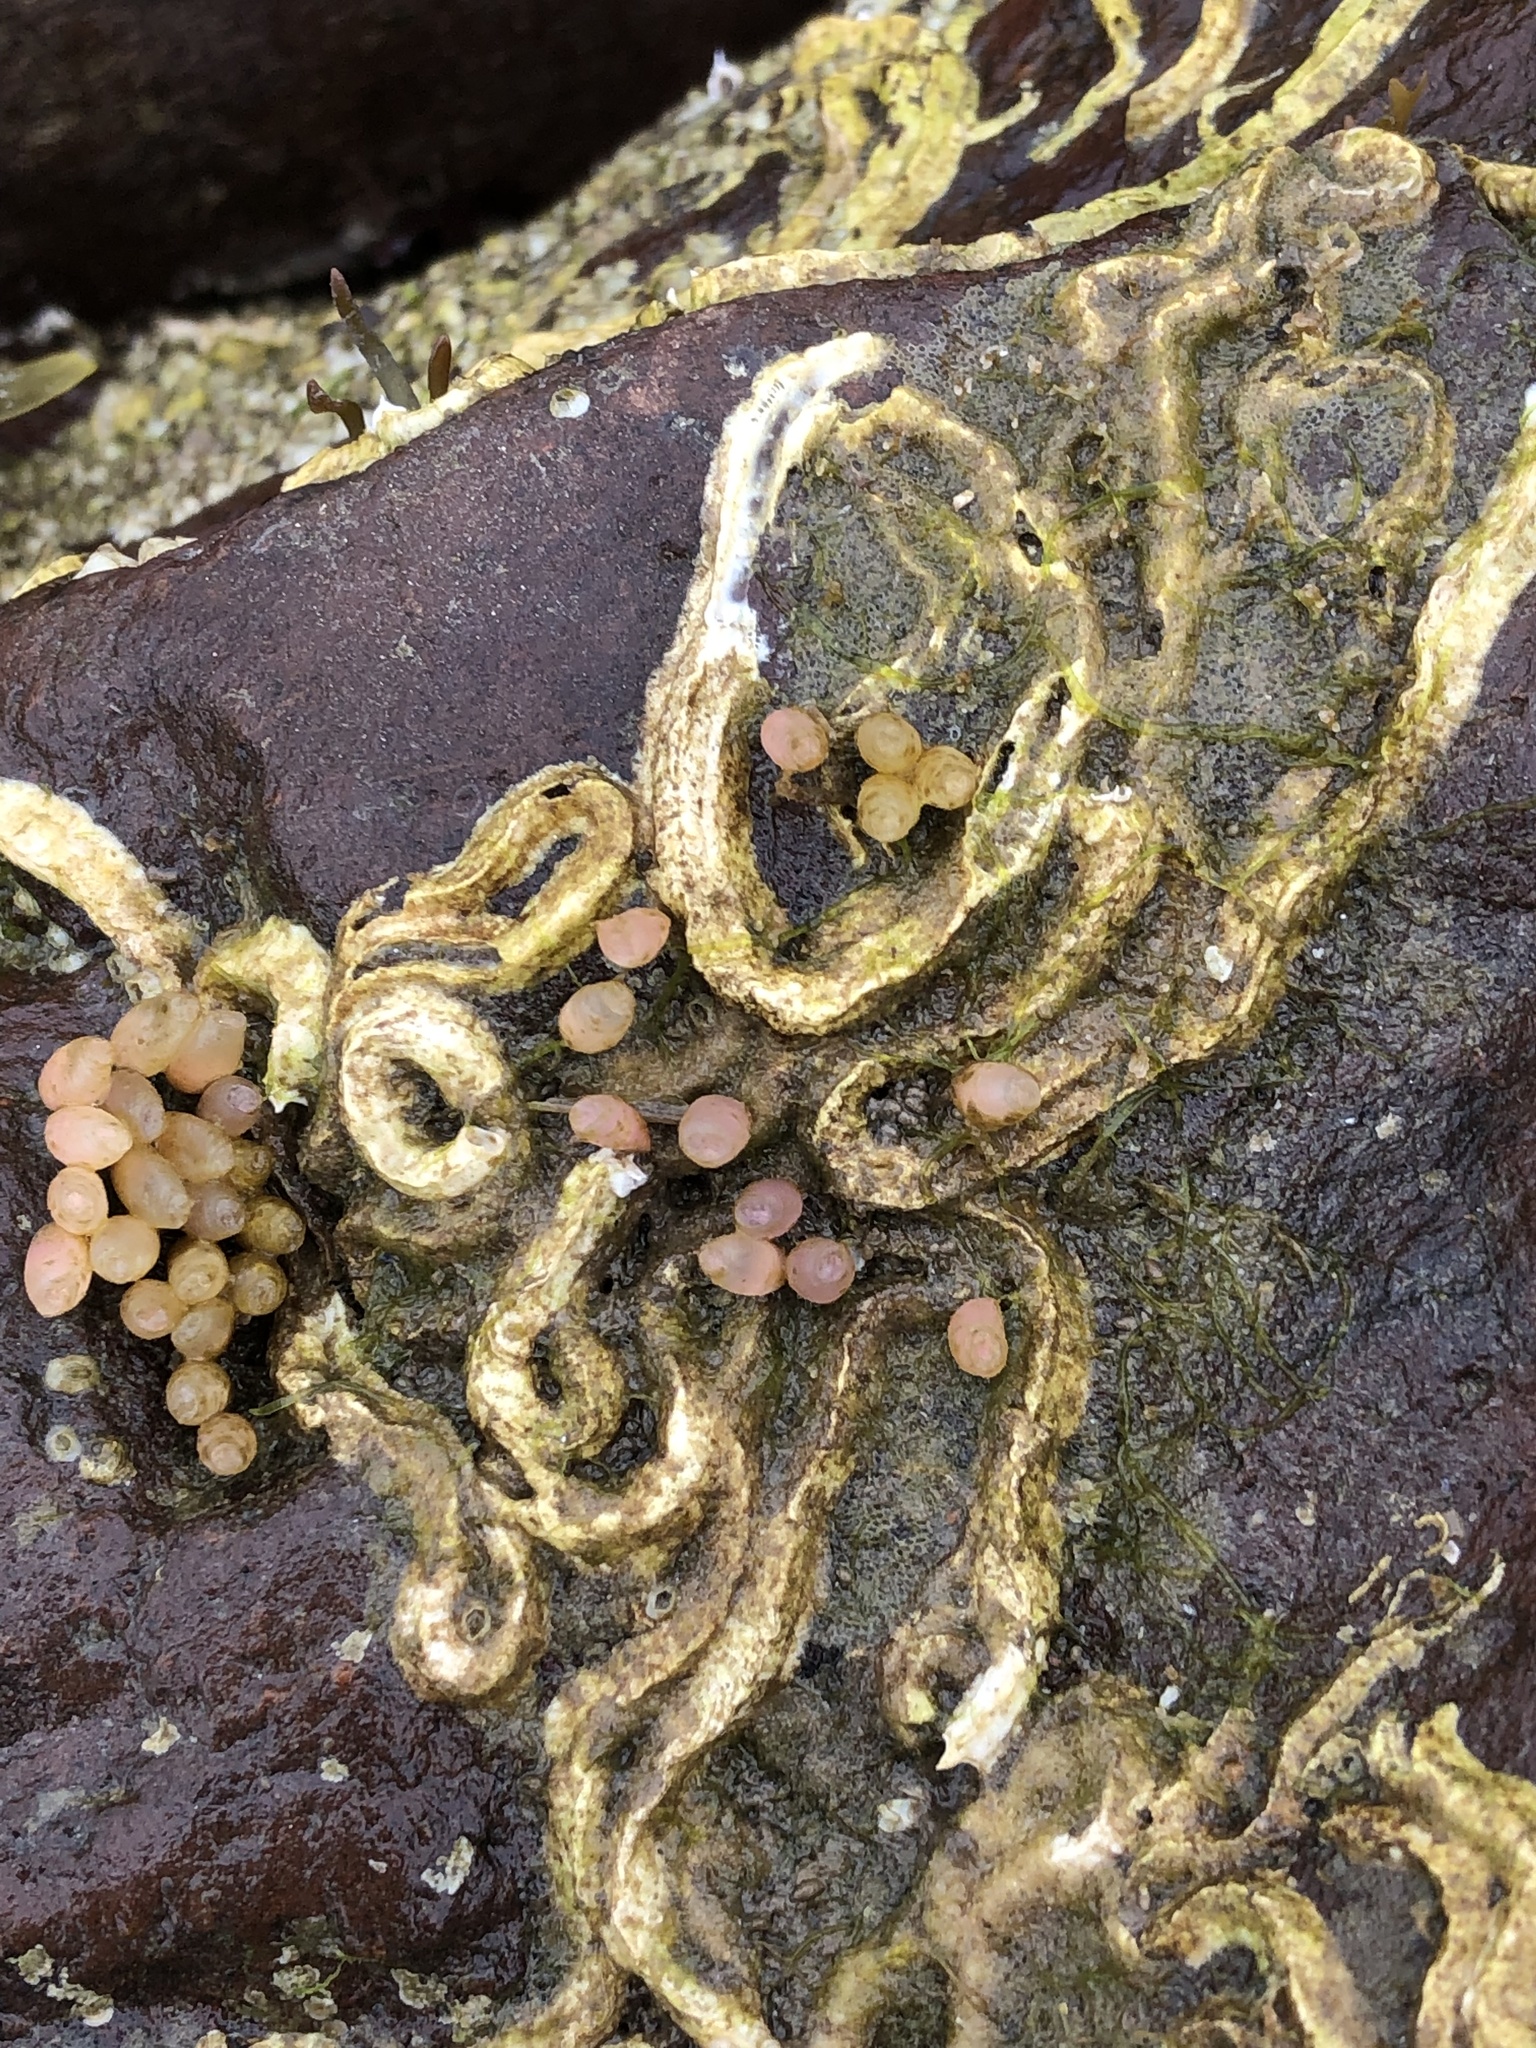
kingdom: Animalia
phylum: Mollusca
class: Gastropoda
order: Neogastropoda
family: Muricidae
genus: Nucella
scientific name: Nucella lapillus
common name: Dog whelk
